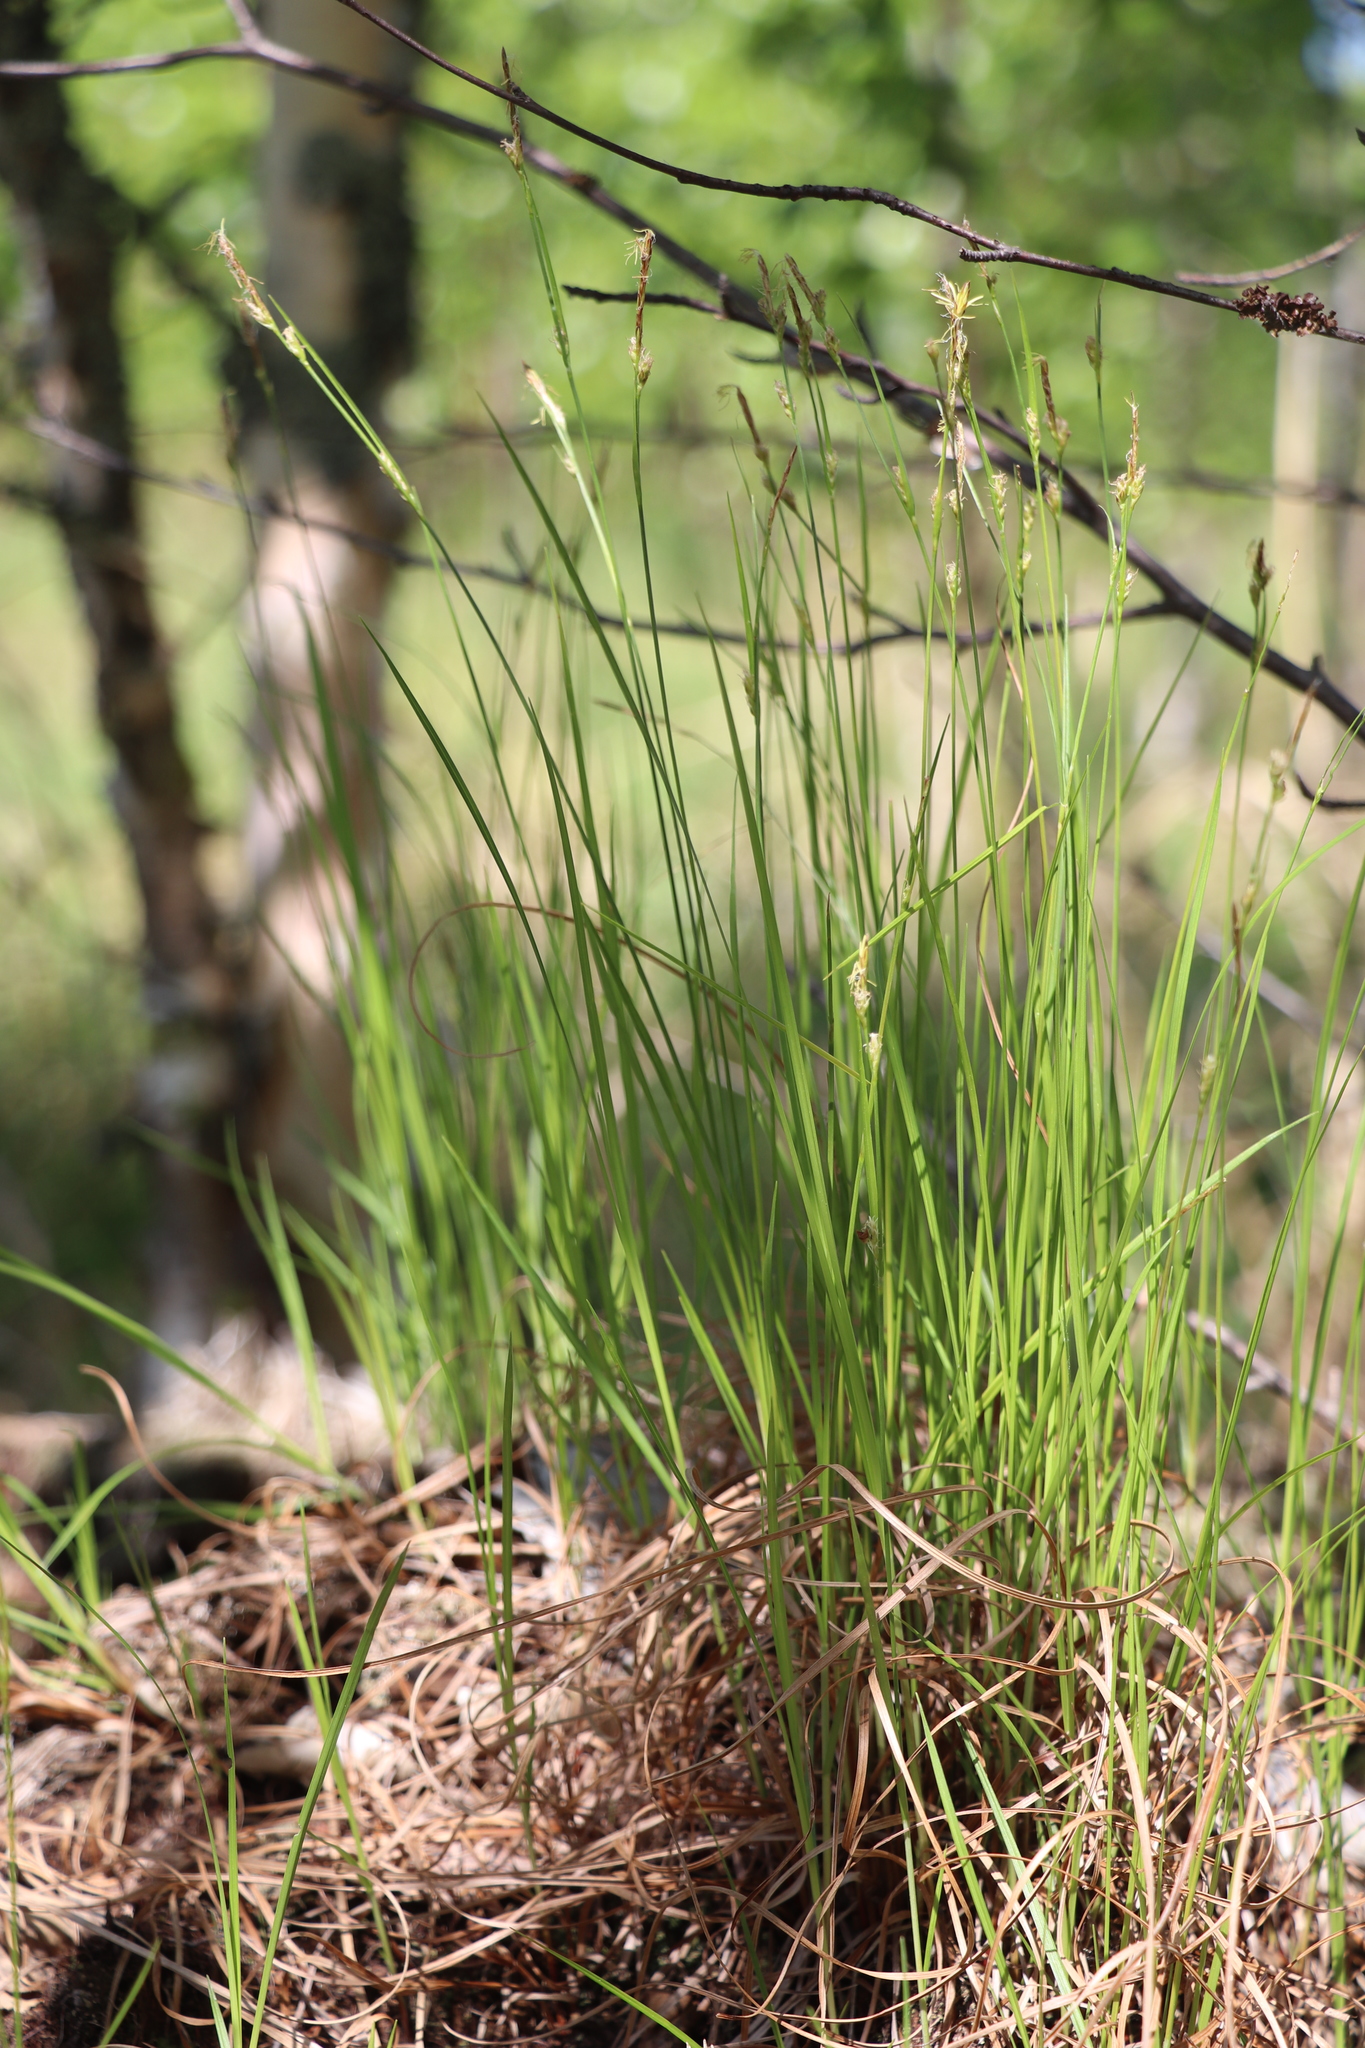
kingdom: Plantae
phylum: Tracheophyta
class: Liliopsida
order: Poales
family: Cyperaceae
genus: Carex
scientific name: Carex globularis
